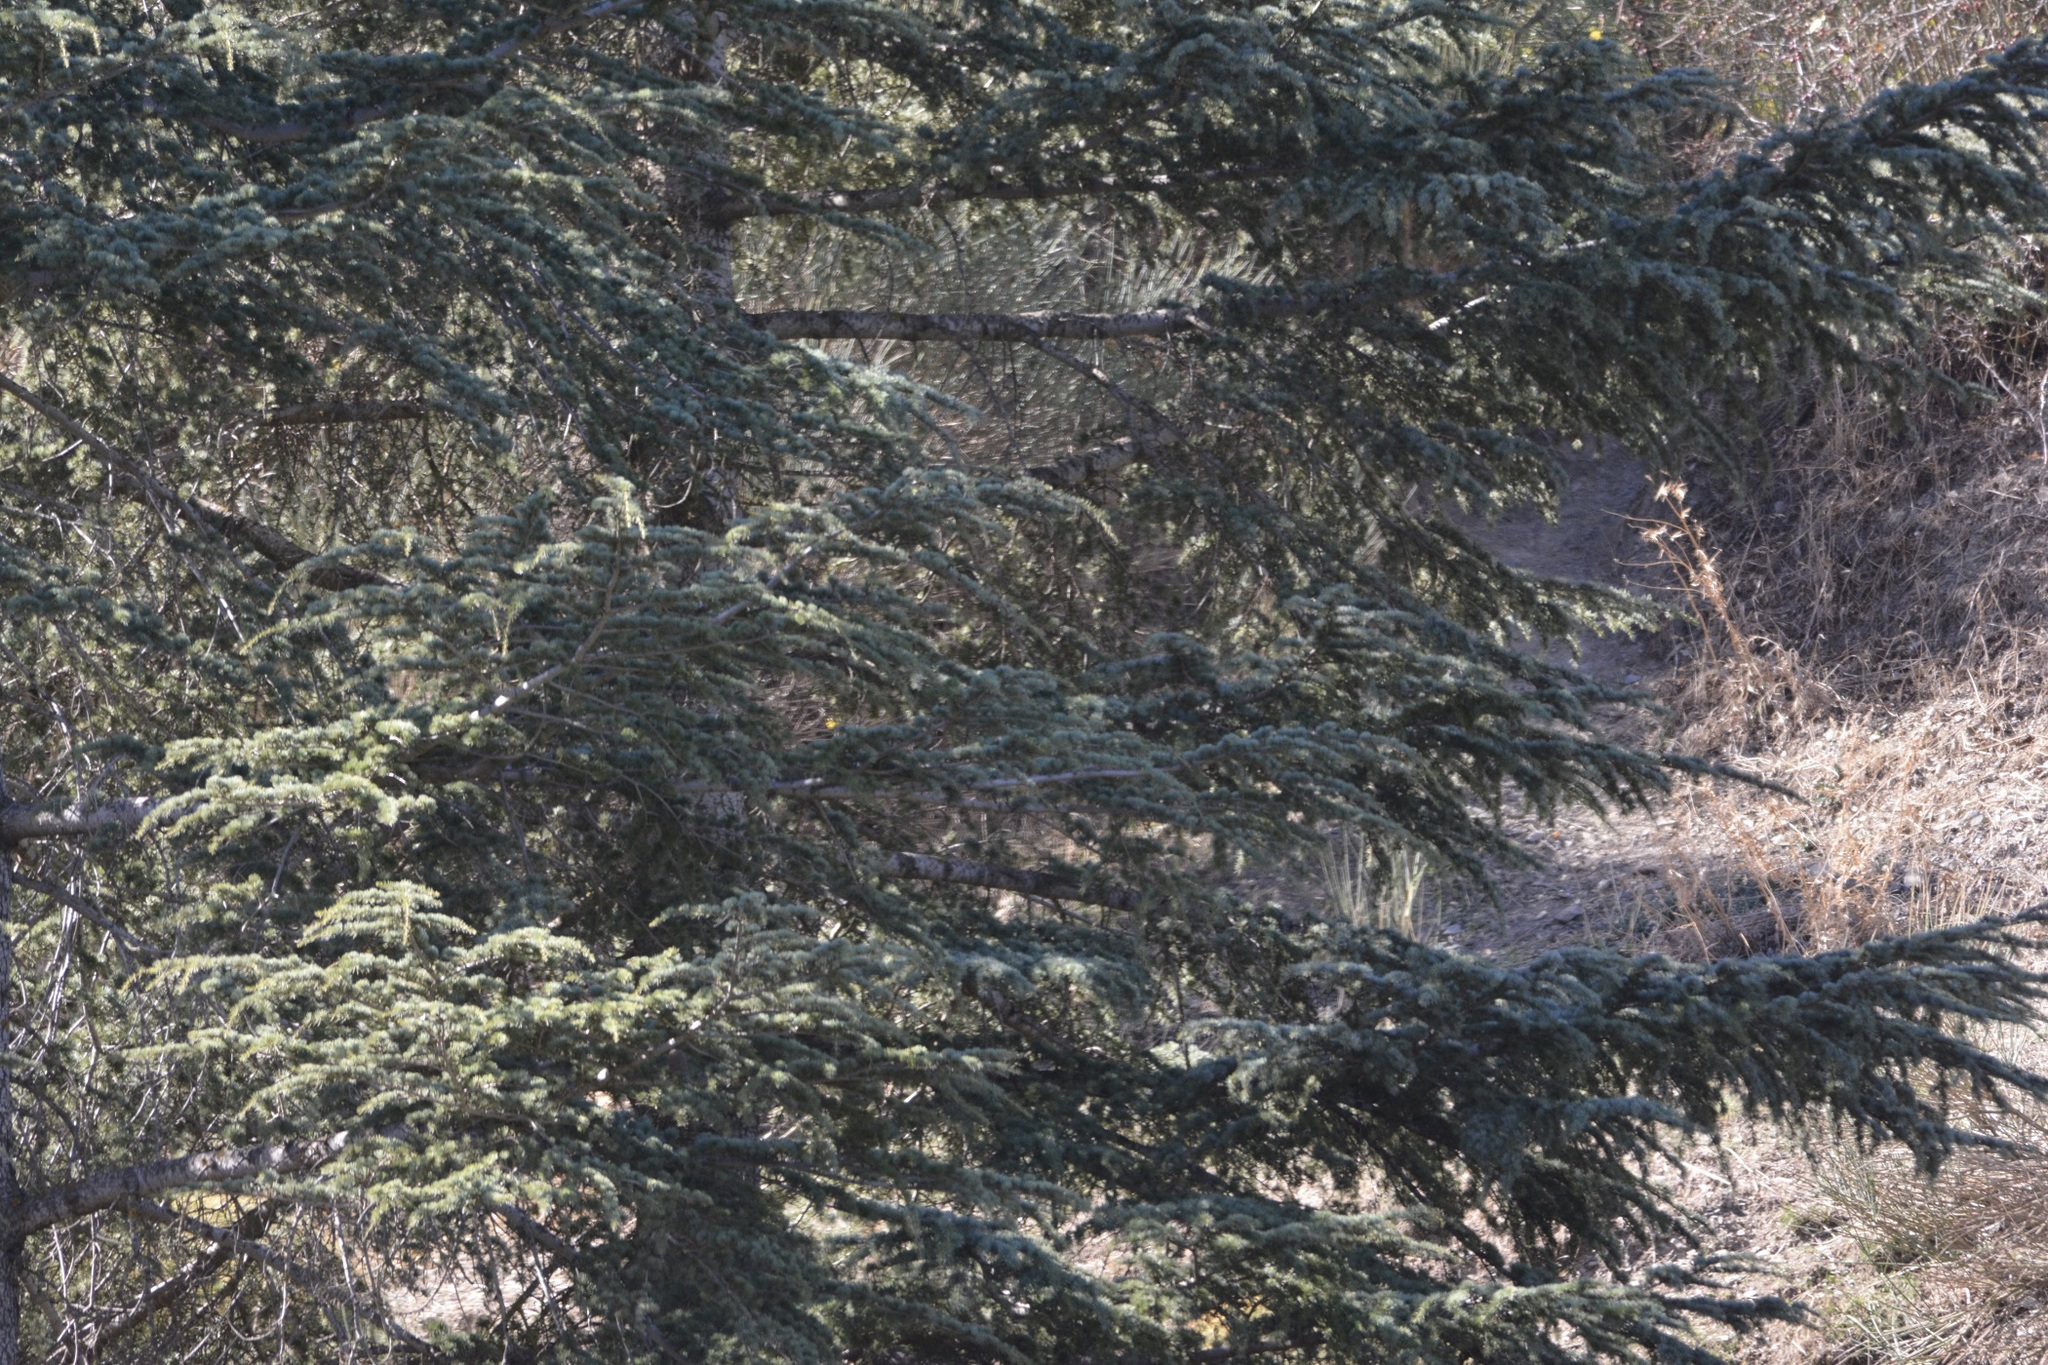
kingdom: Plantae
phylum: Tracheophyta
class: Pinopsida
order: Pinales
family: Pinaceae
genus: Cedrus
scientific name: Cedrus atlantica
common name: Atlas cedar
